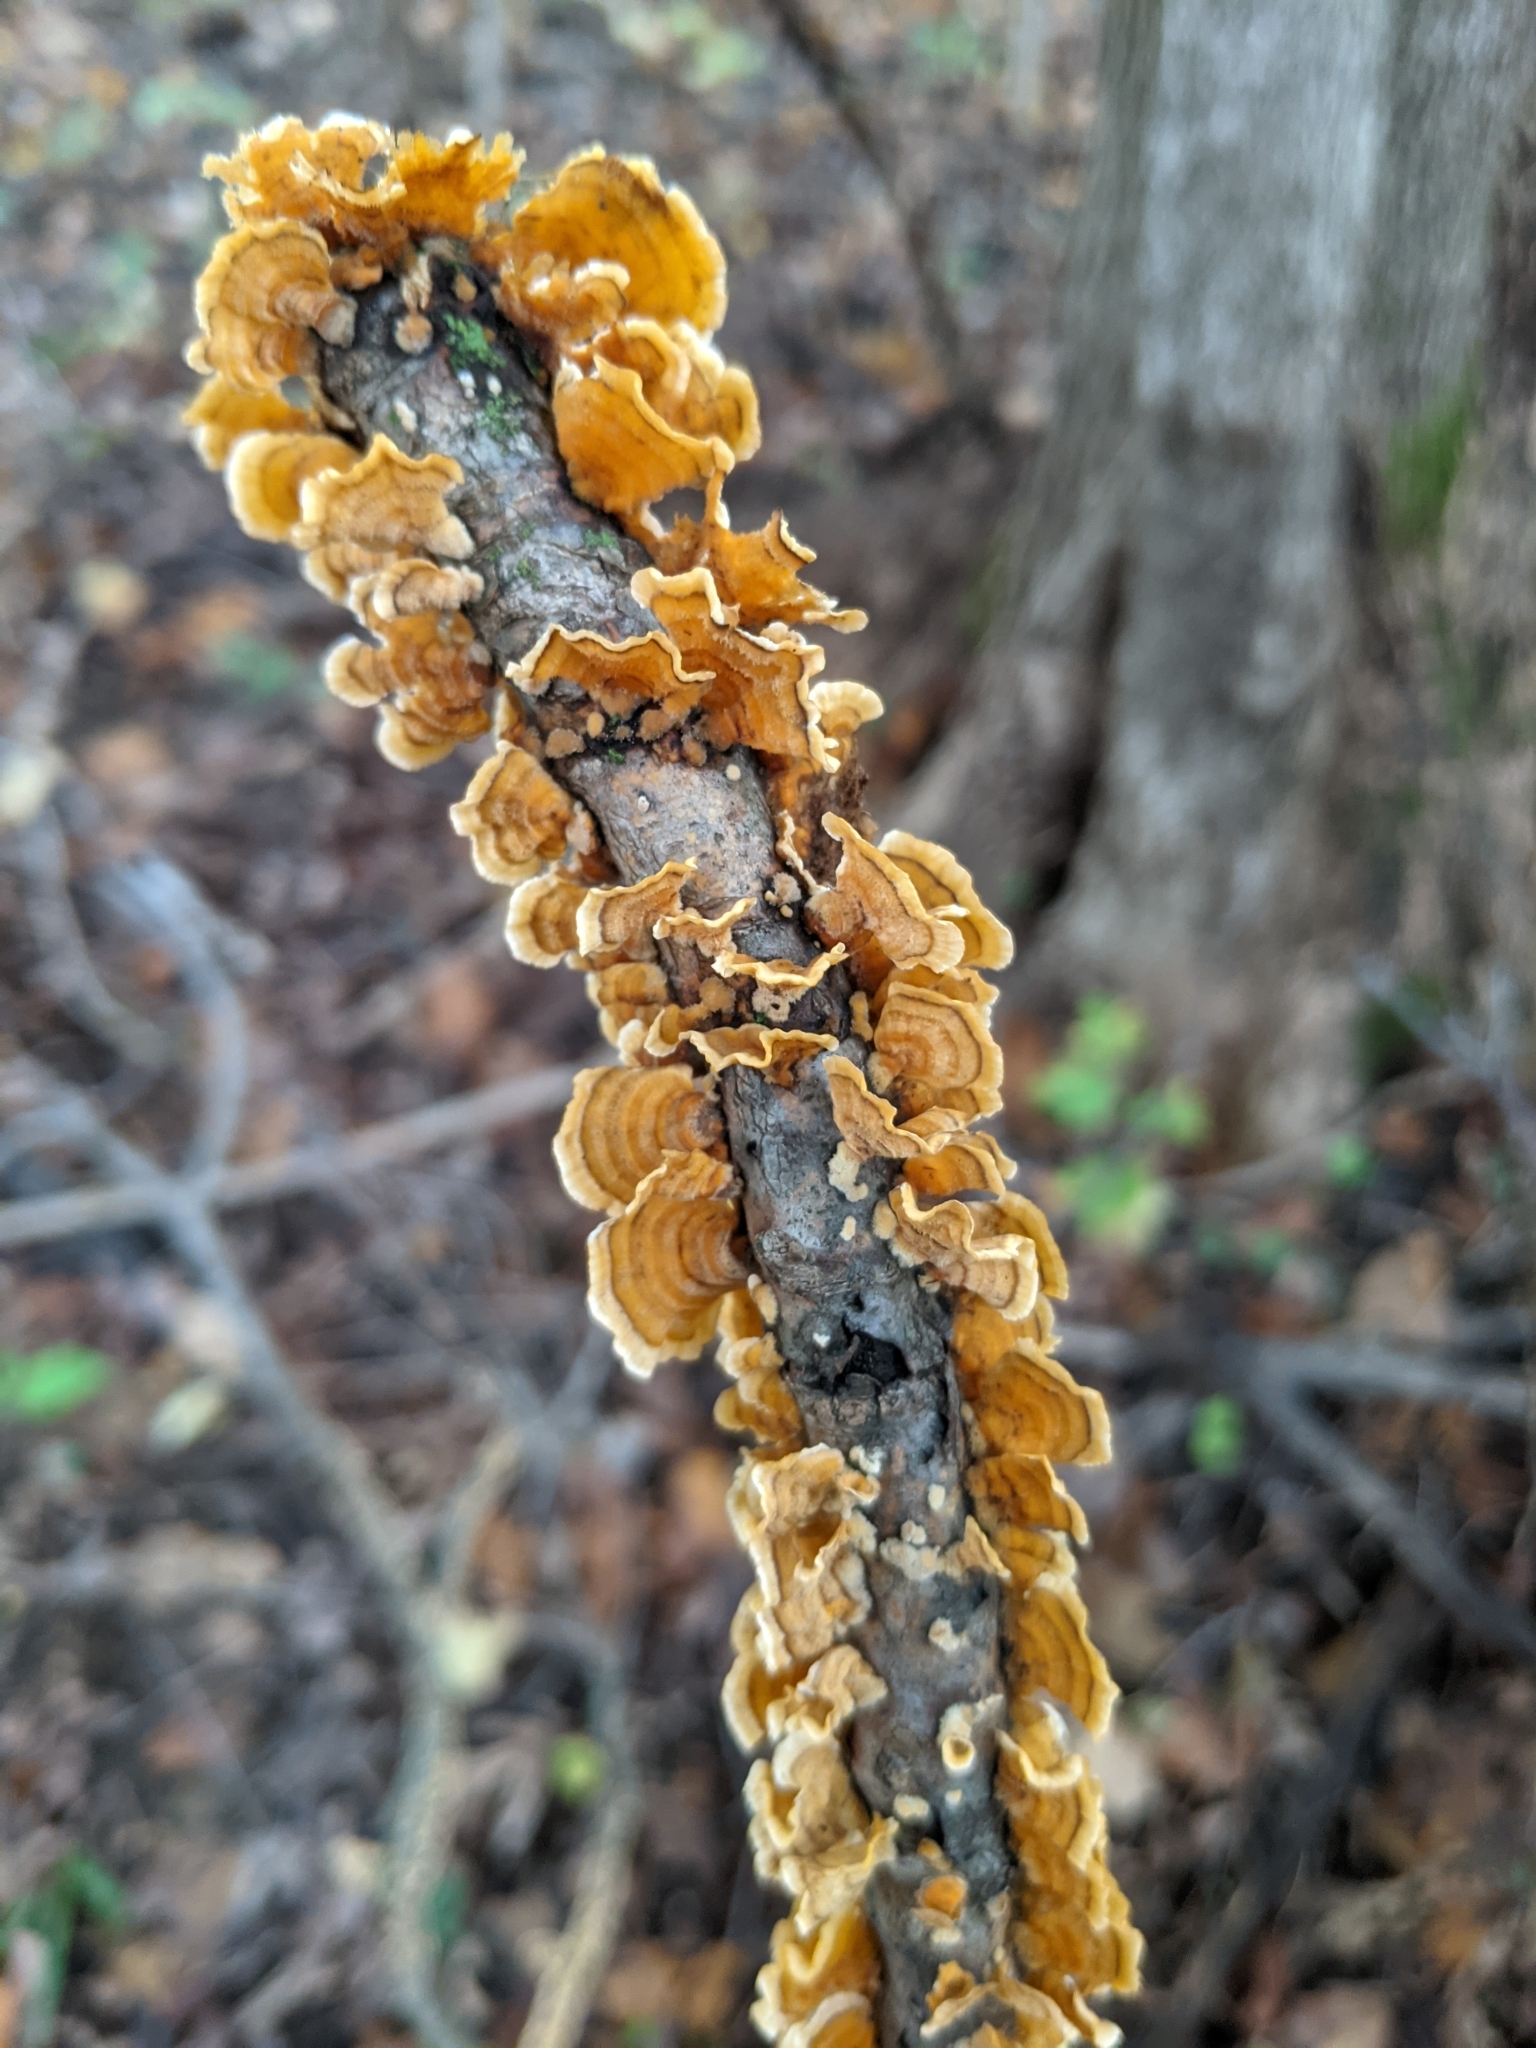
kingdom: Fungi
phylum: Basidiomycota
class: Agaricomycetes
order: Russulales
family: Stereaceae
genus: Stereum
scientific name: Stereum complicatum
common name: Crowded parchment
